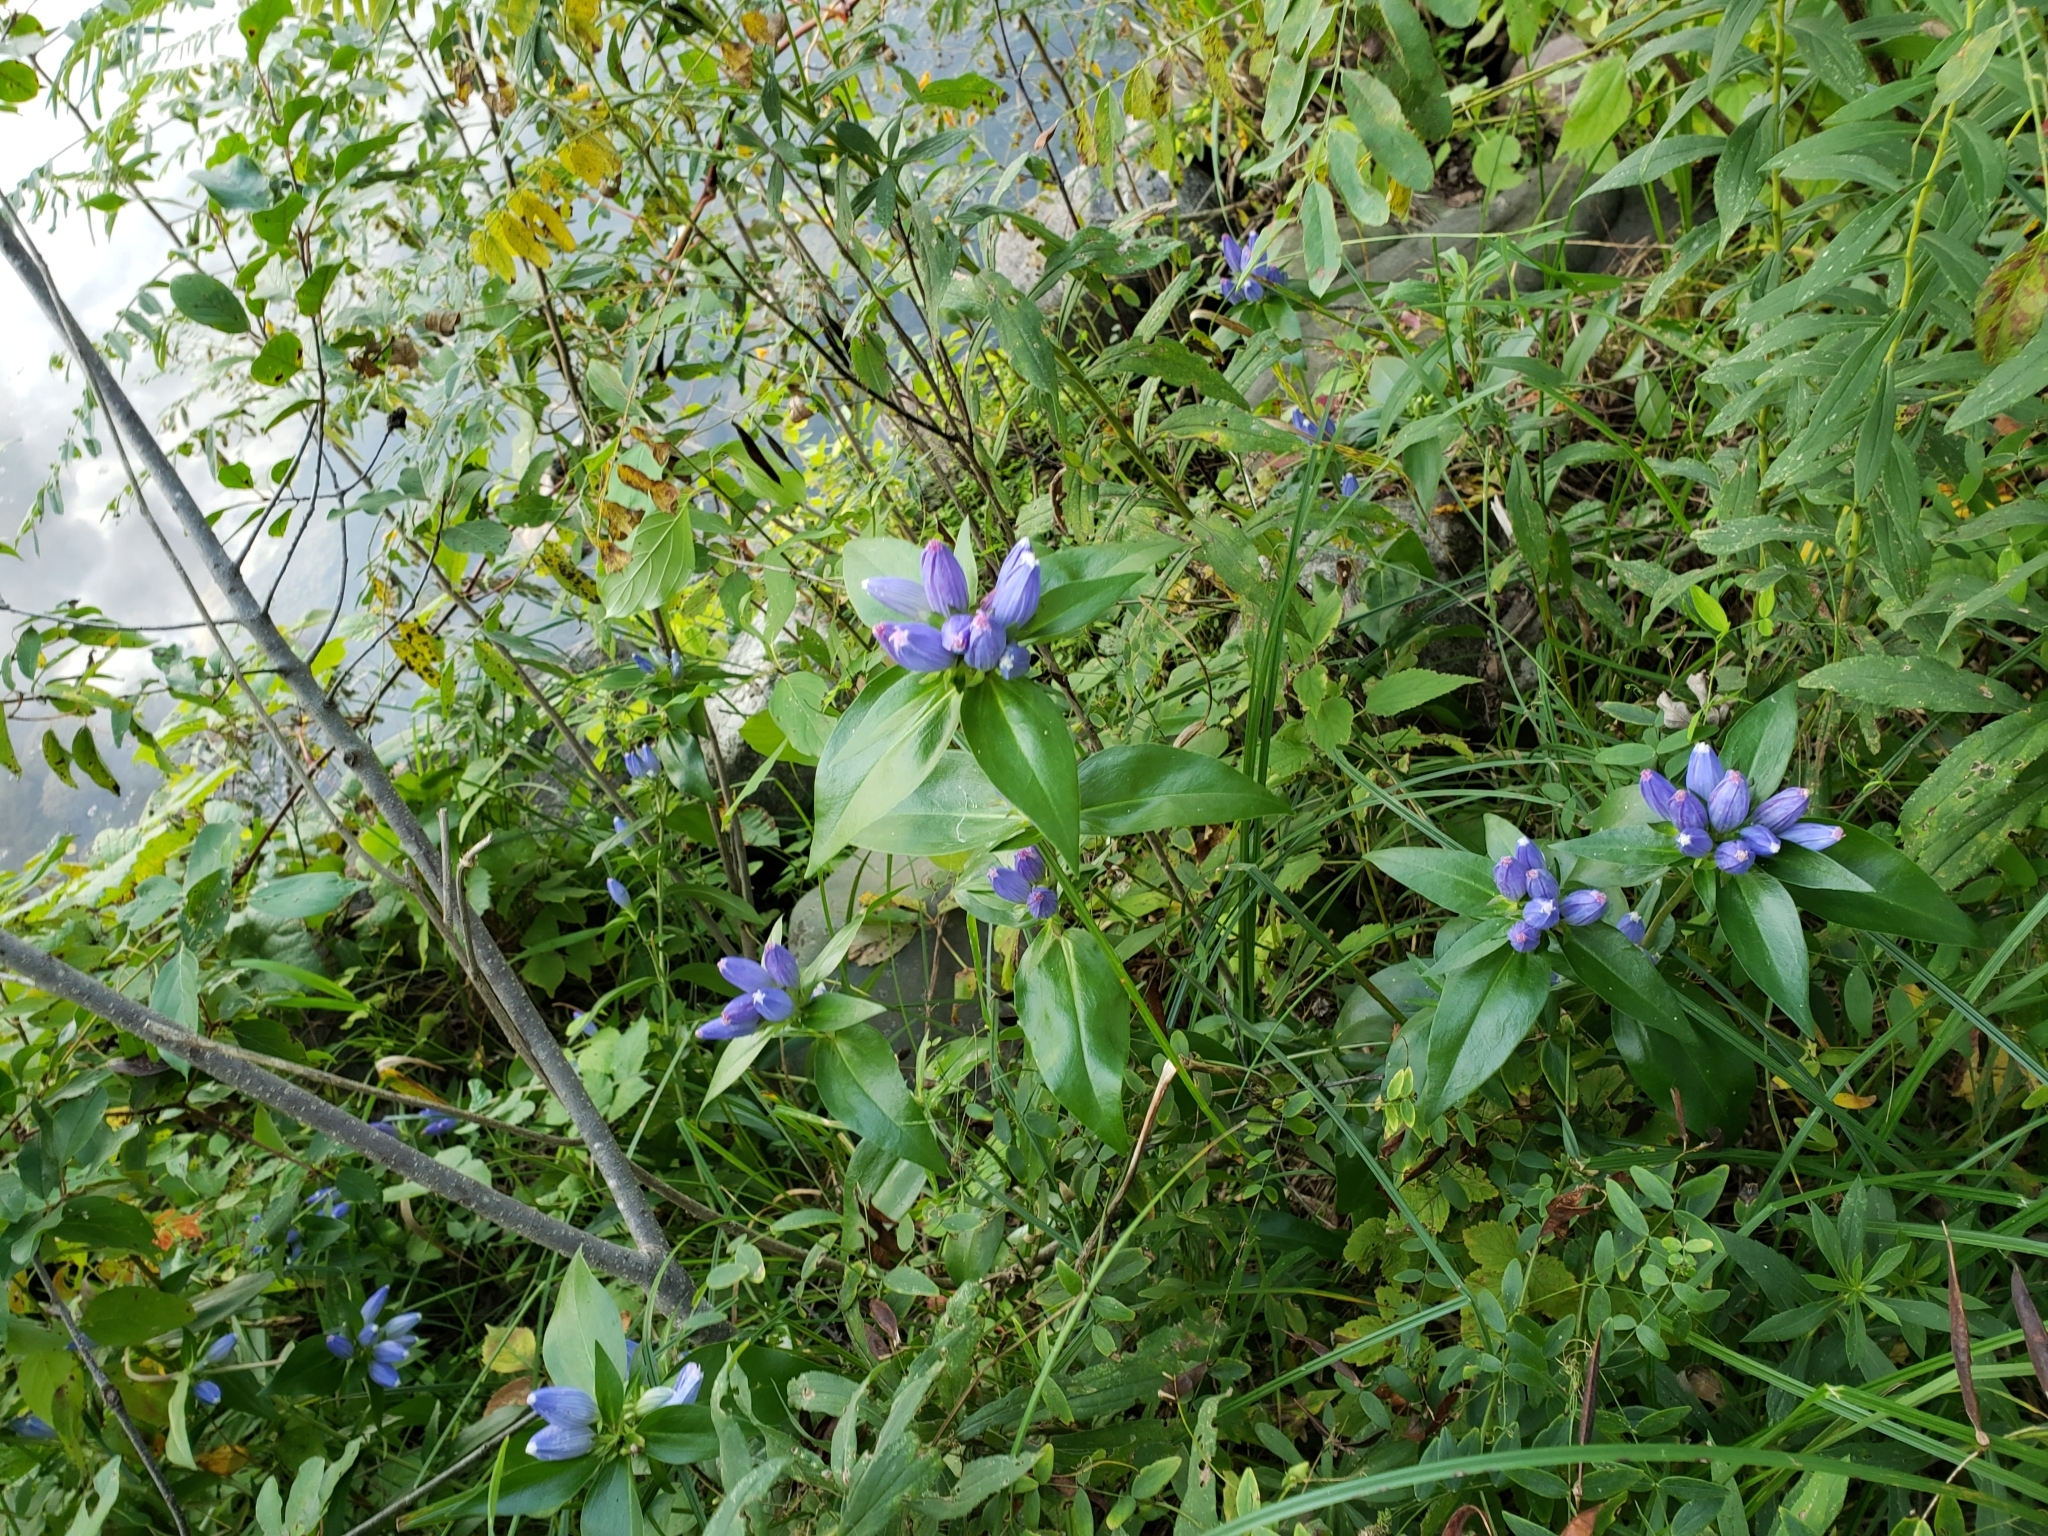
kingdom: Plantae
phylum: Tracheophyta
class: Magnoliopsida
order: Gentianales
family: Gentianaceae
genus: Gentiana
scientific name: Gentiana andrewsii
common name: Bottle gentian
